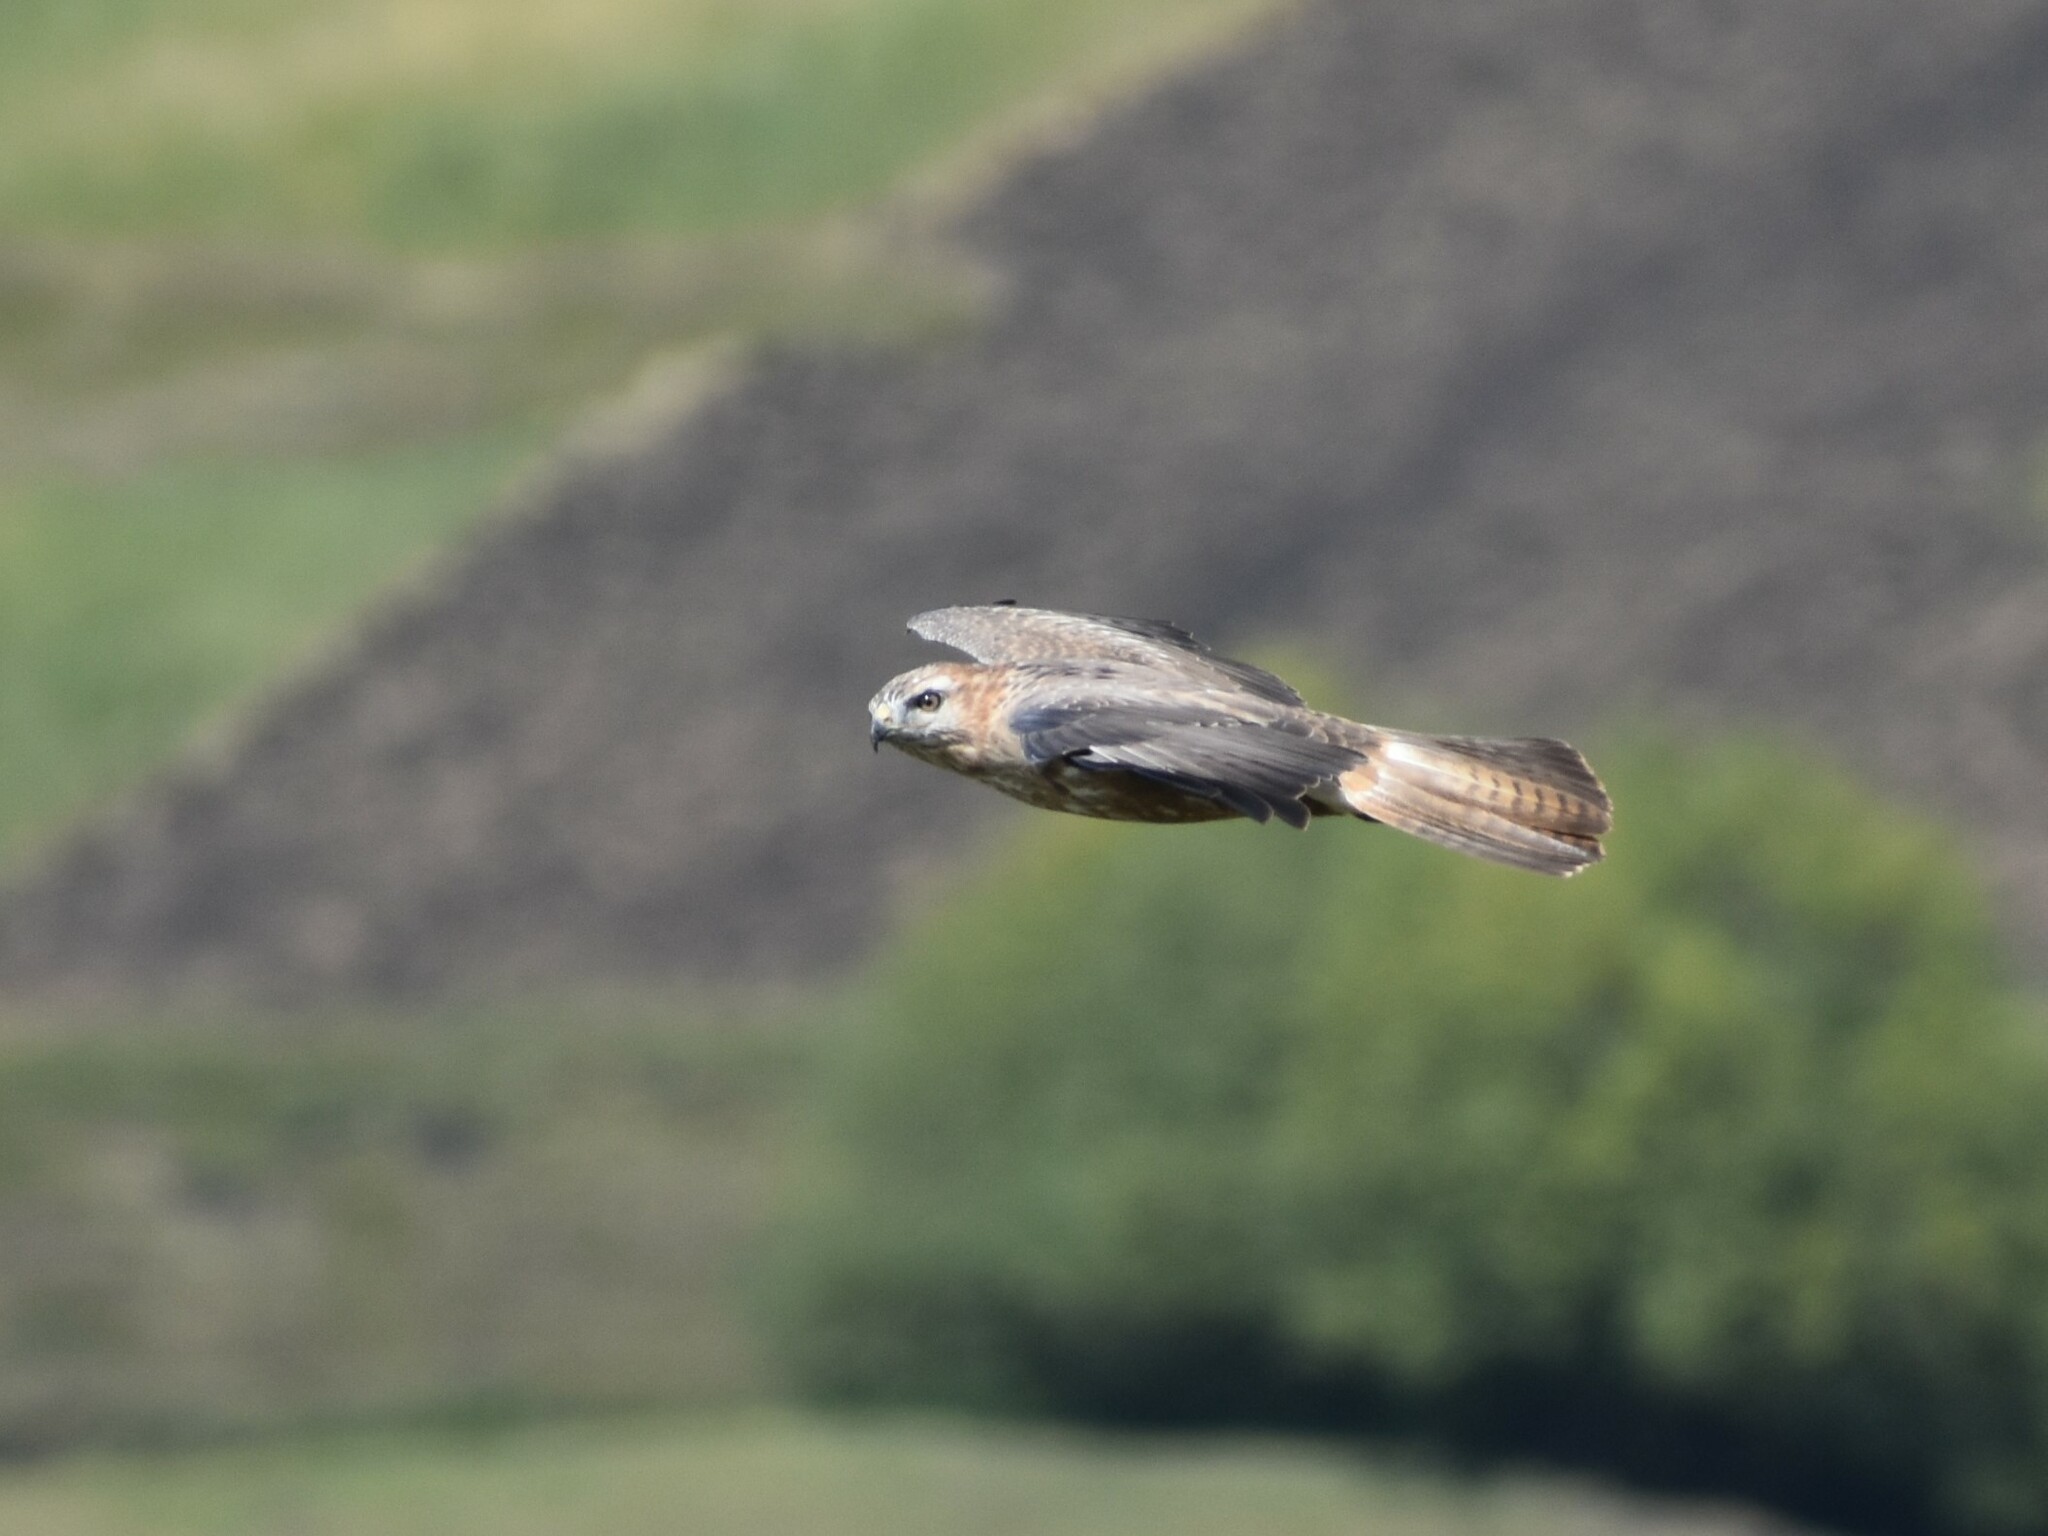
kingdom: Animalia
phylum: Chordata
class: Aves
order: Accipitriformes
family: Accipitridae
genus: Buteo
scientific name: Buteo rufofuscus
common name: Jackal buzzard
